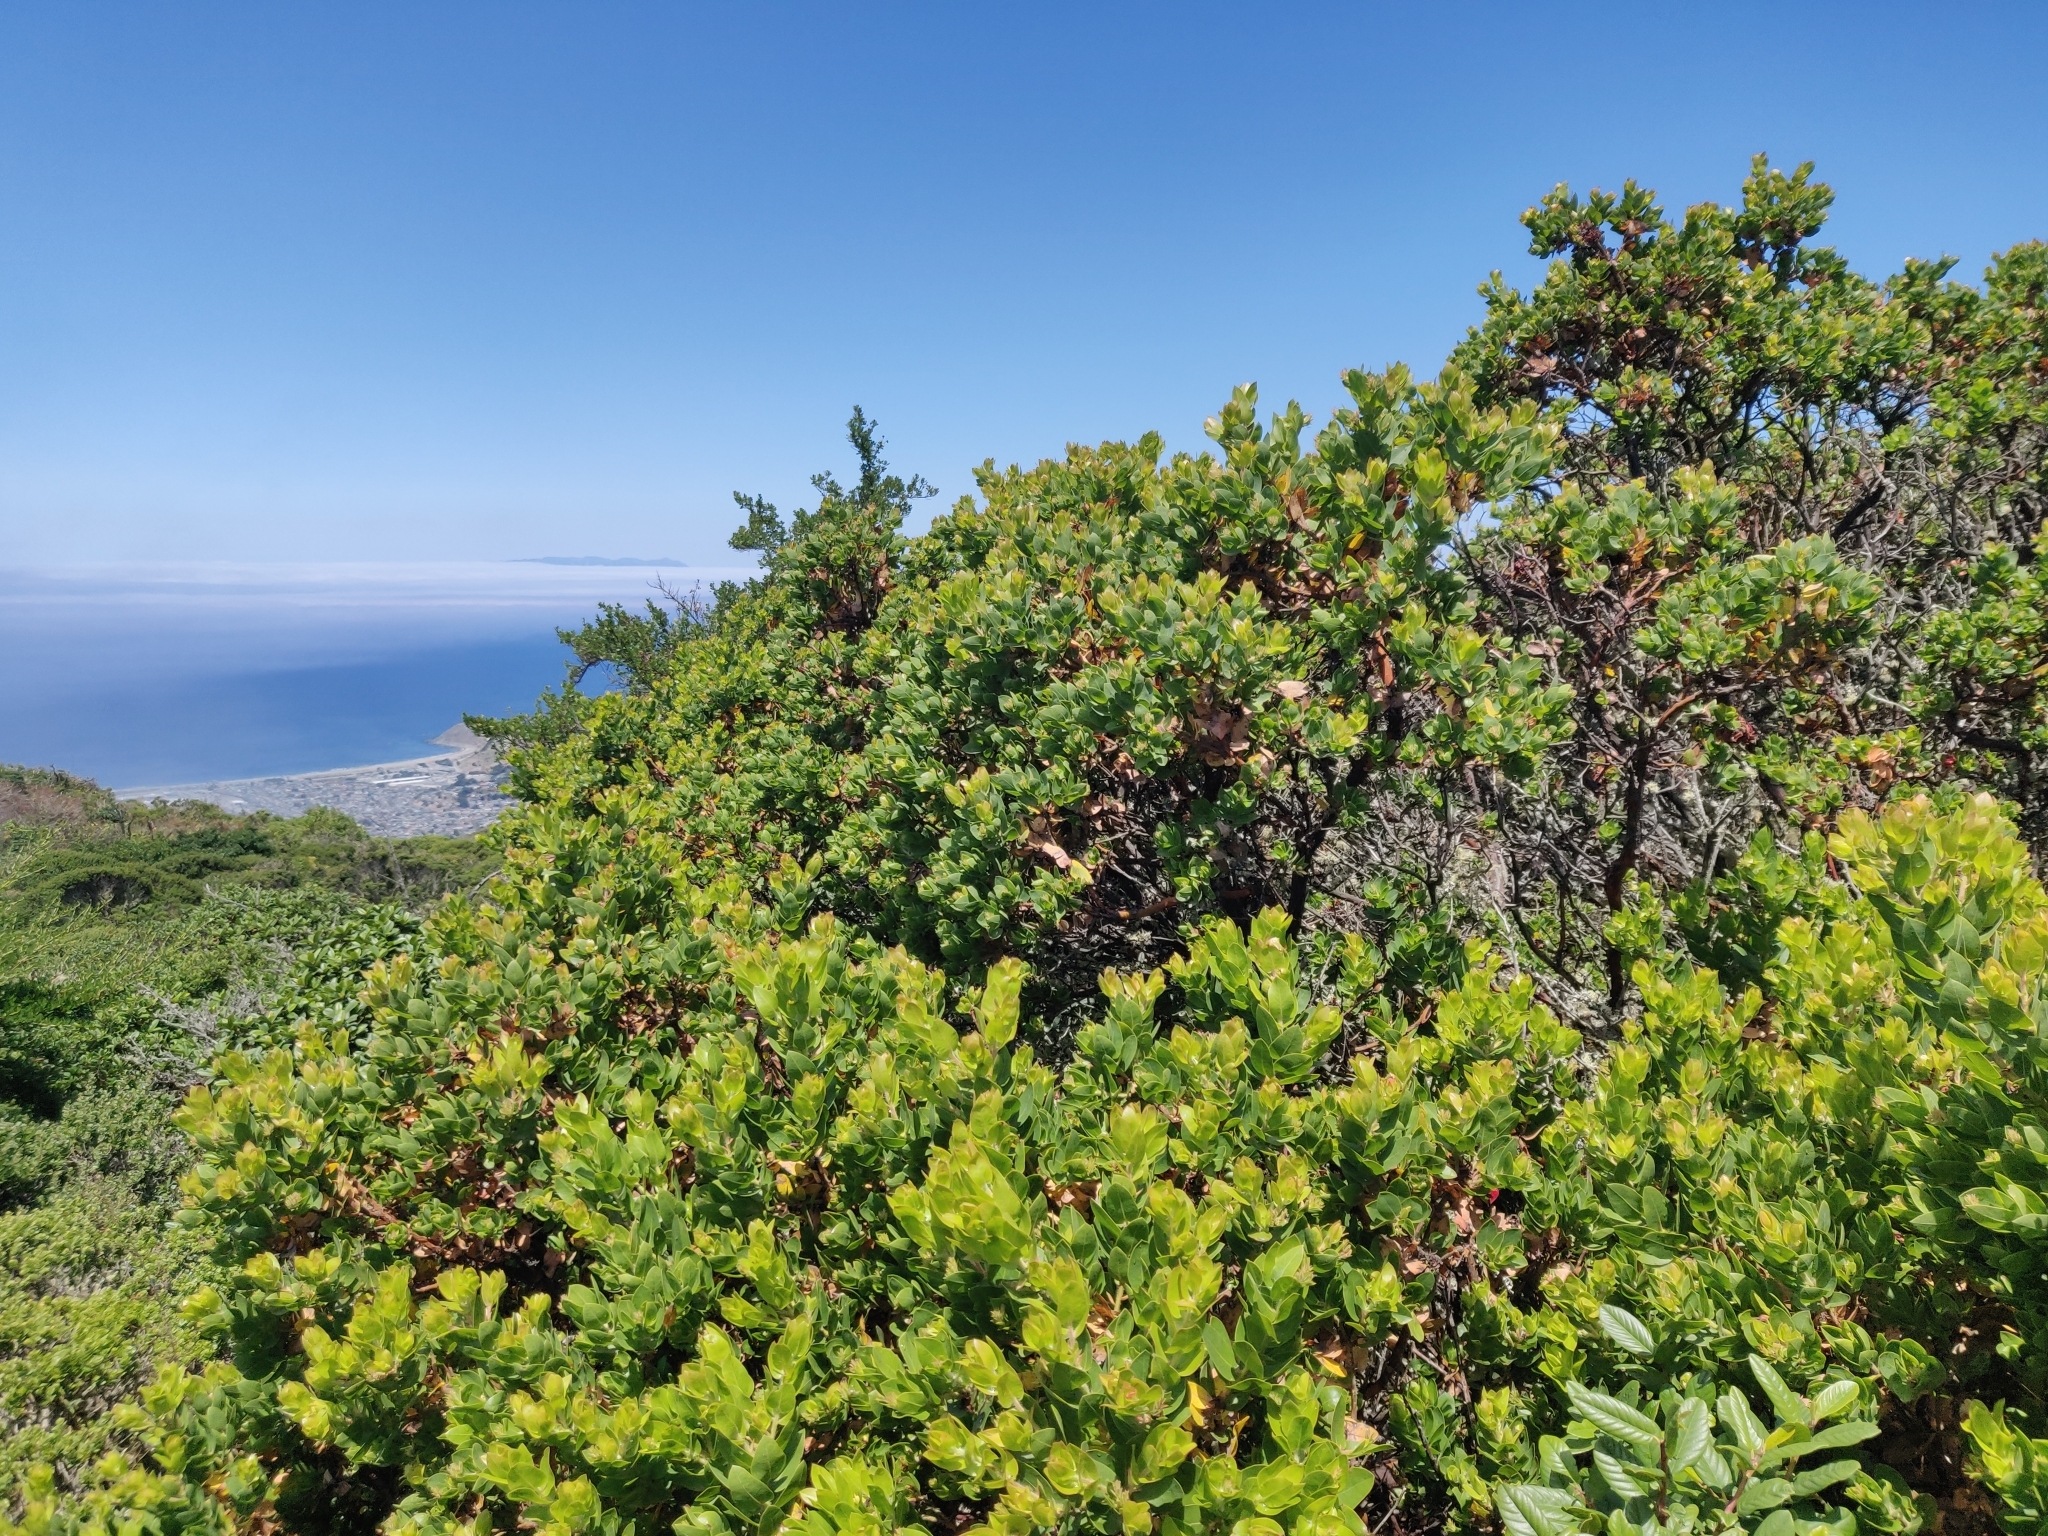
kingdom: Plantae
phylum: Tracheophyta
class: Magnoliopsida
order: Ericales
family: Ericaceae
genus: Arctostaphylos
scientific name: Arctostaphylos montaraensis
